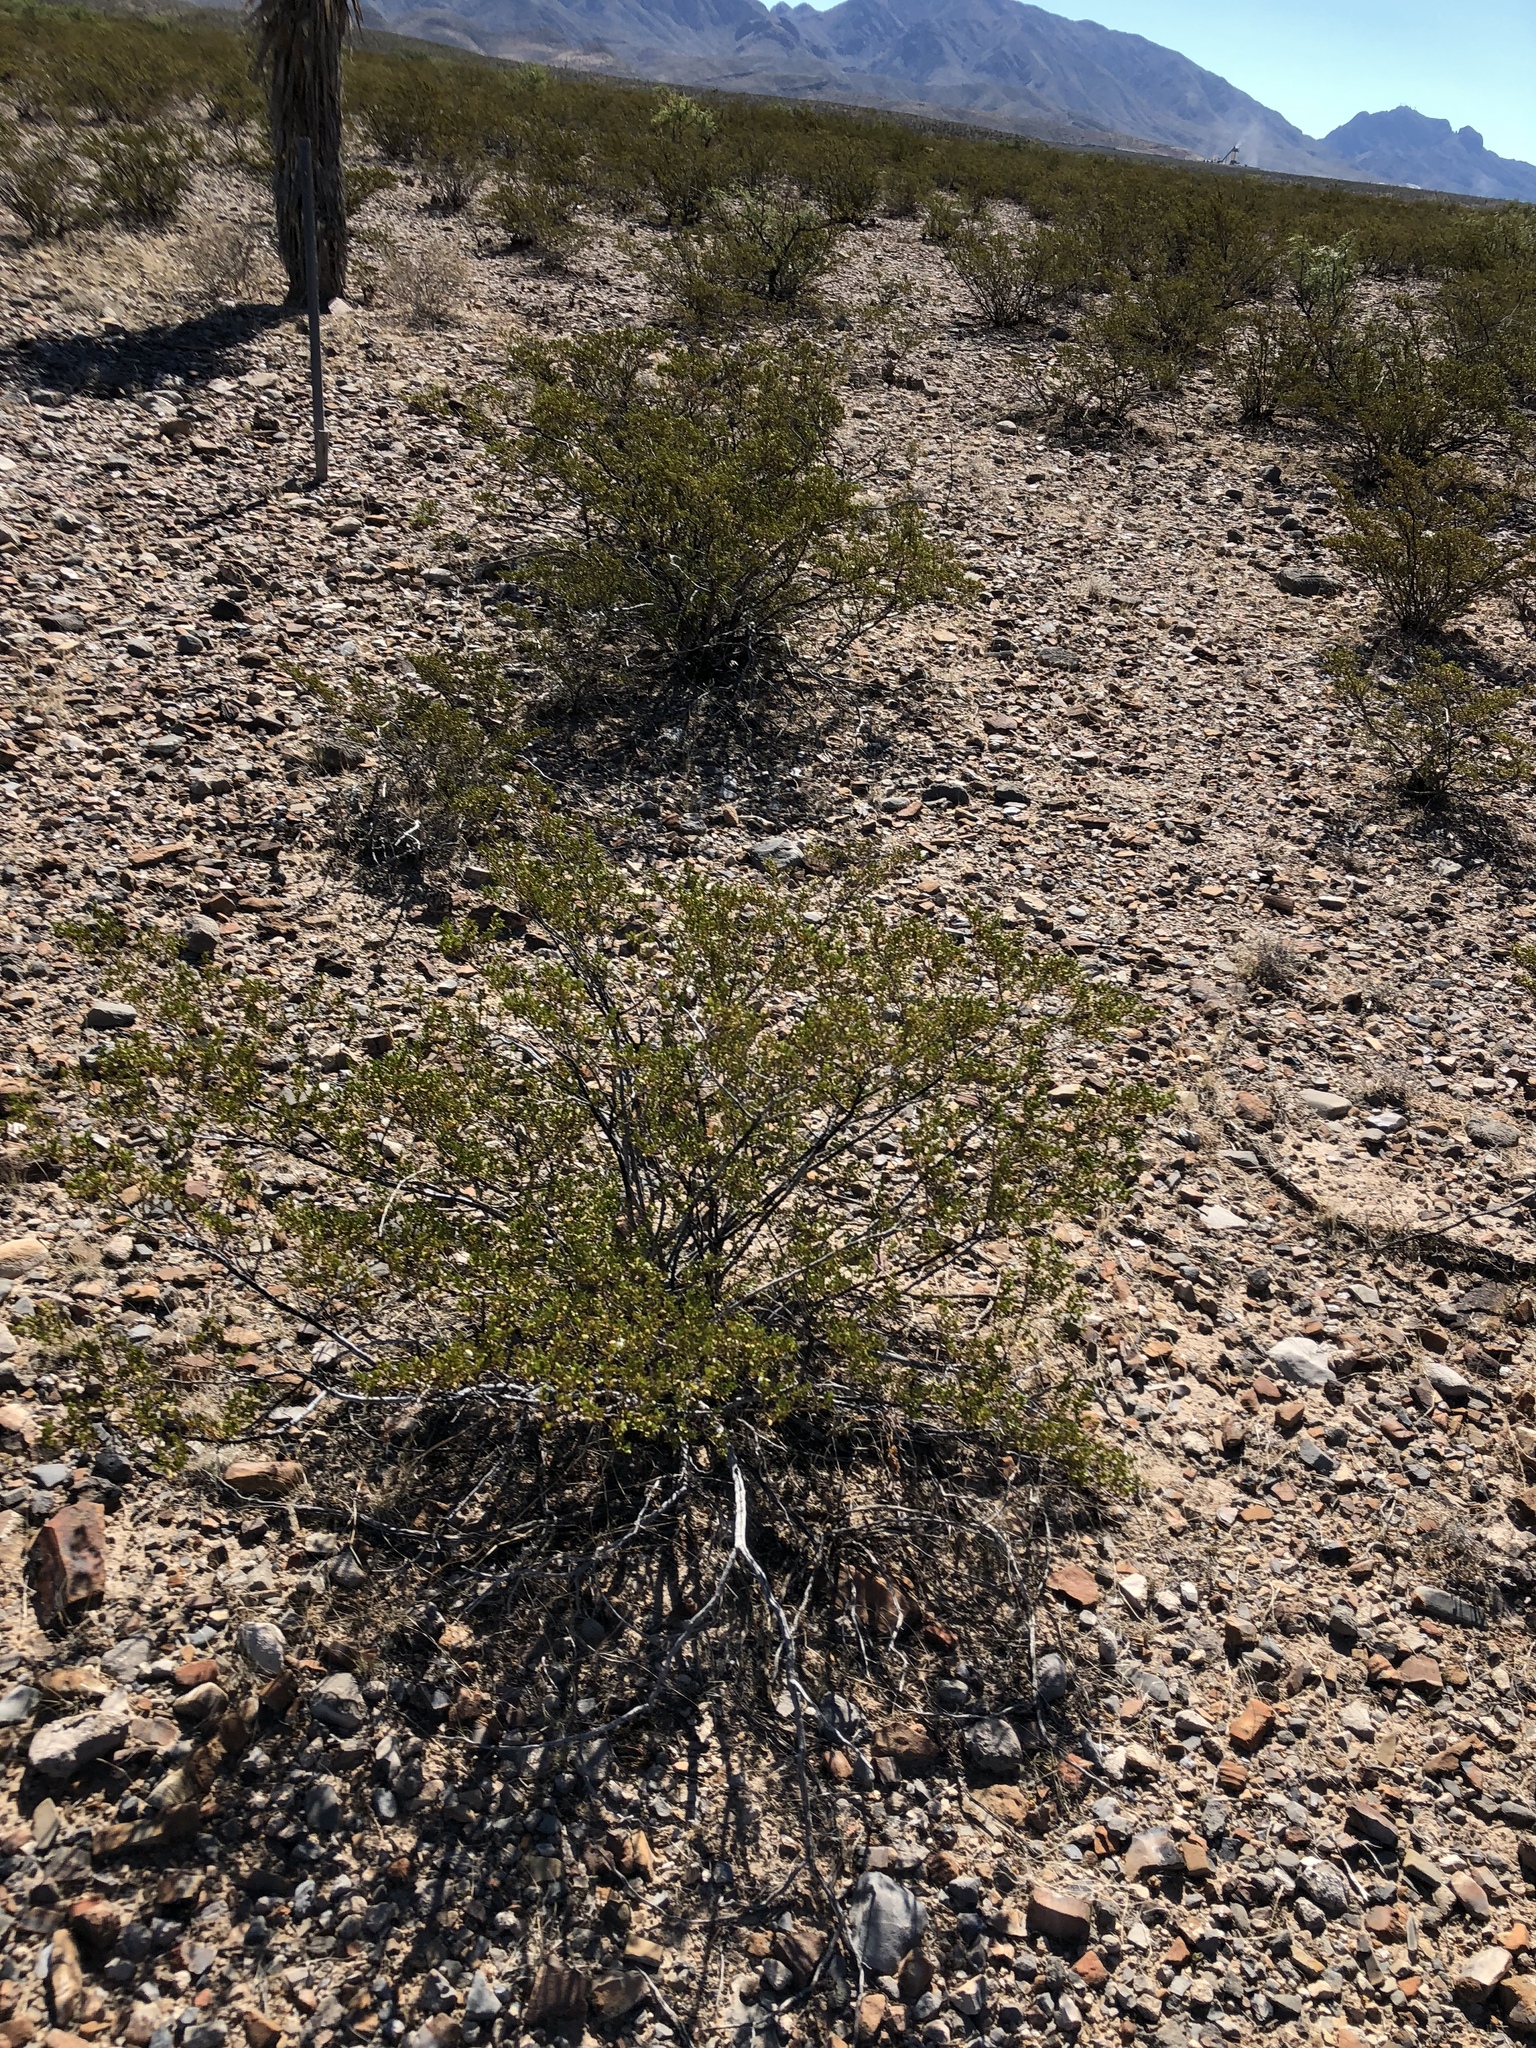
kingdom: Plantae
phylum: Tracheophyta
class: Magnoliopsida
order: Zygophyllales
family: Zygophyllaceae
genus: Larrea
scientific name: Larrea tridentata
